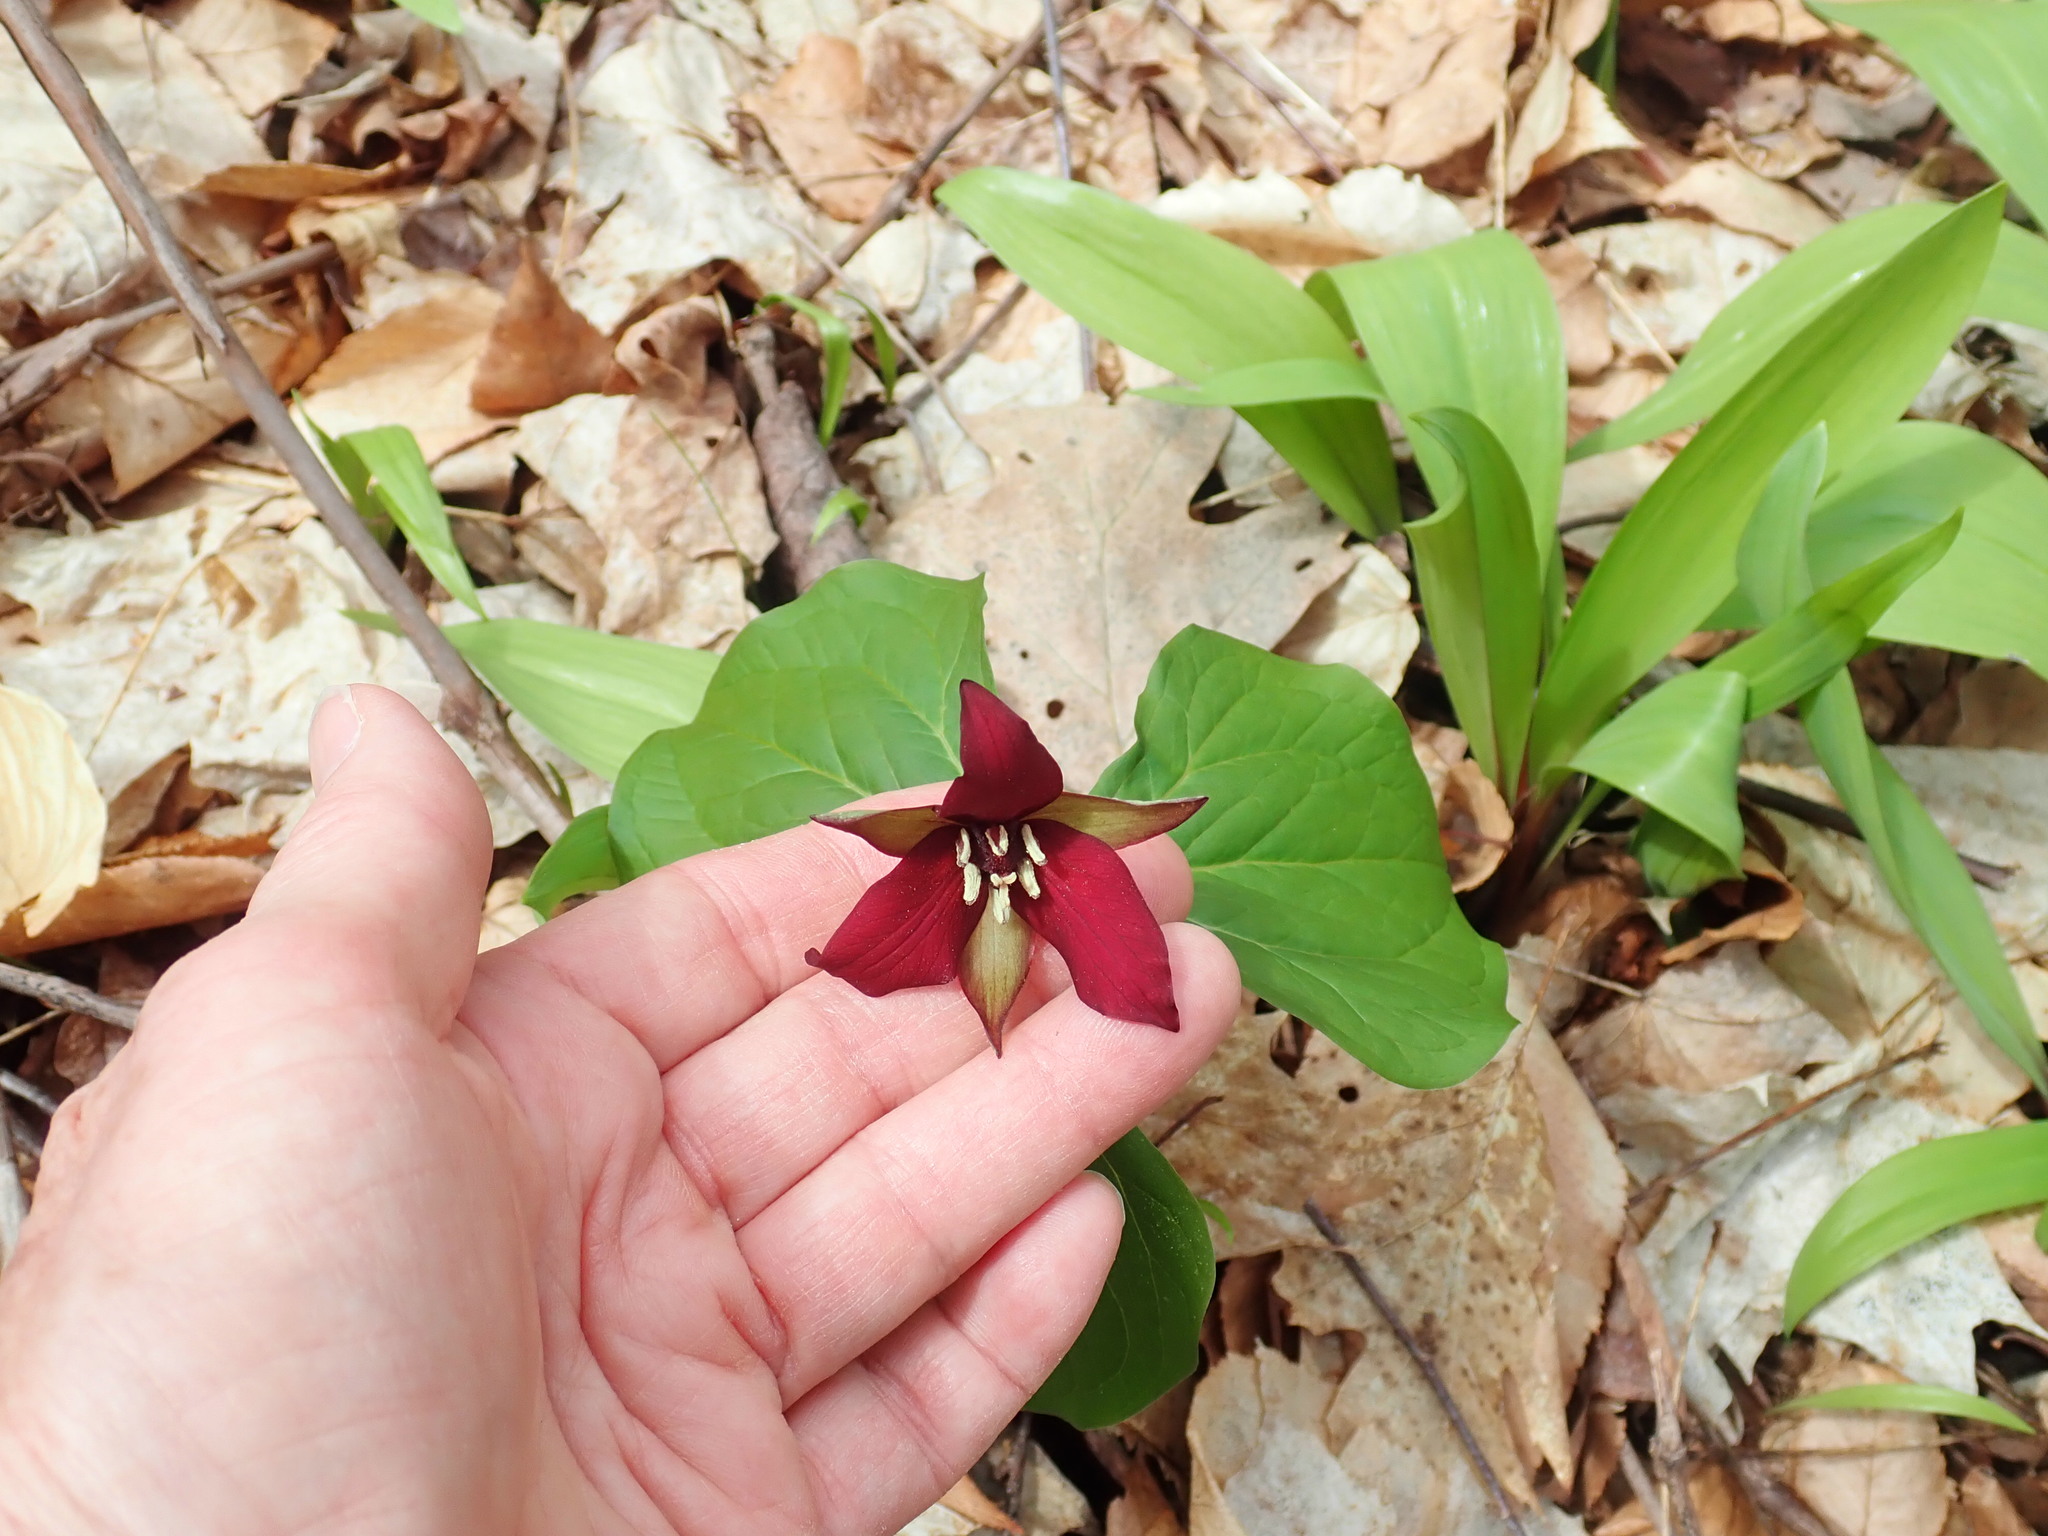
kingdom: Plantae
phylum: Tracheophyta
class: Liliopsida
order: Liliales
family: Melanthiaceae
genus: Trillium
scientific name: Trillium erectum
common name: Purple trillium
